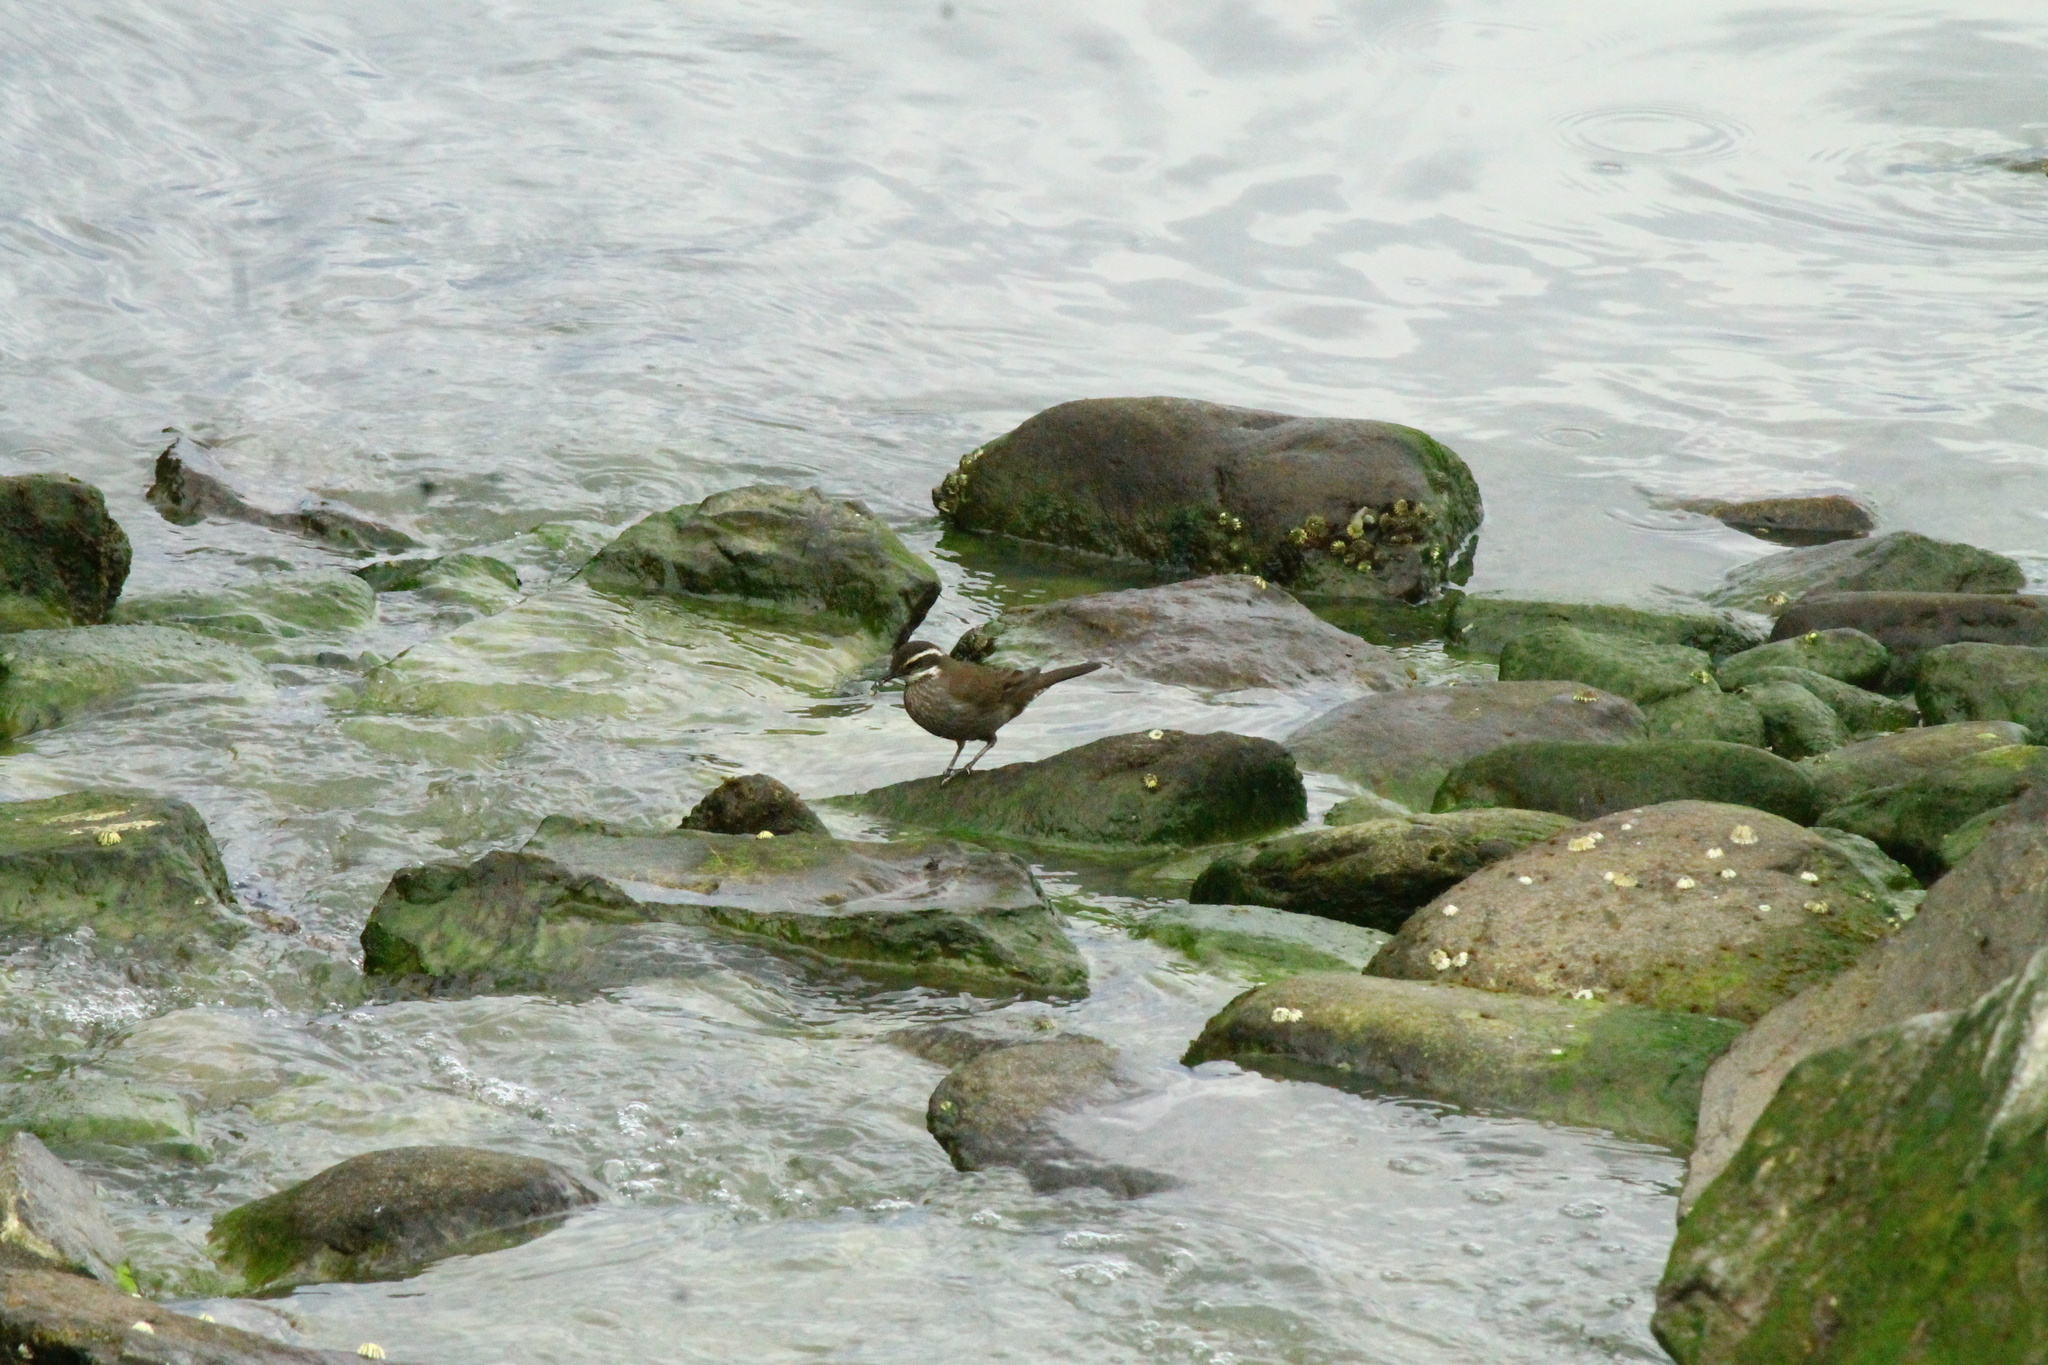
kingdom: Animalia
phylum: Chordata
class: Aves
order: Passeriformes
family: Furnariidae
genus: Cinclodes
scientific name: Cinclodes patagonicus
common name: Dark-bellied cinclodes
